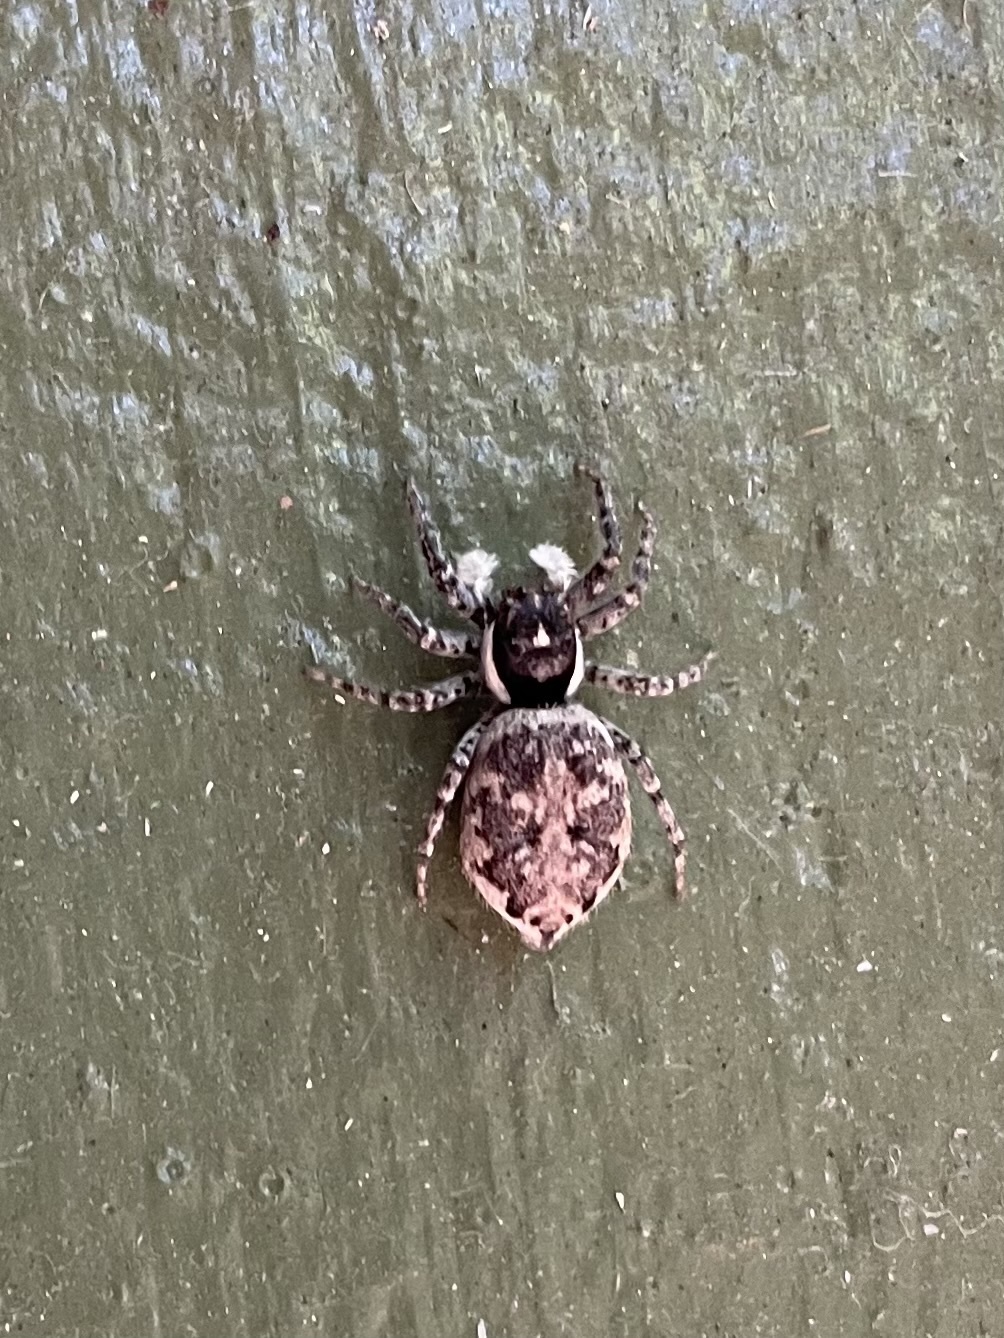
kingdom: Animalia
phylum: Arthropoda
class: Arachnida
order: Araneae
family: Salticidae
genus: Menemerus
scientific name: Menemerus semilimbatus
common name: Jumping spider
